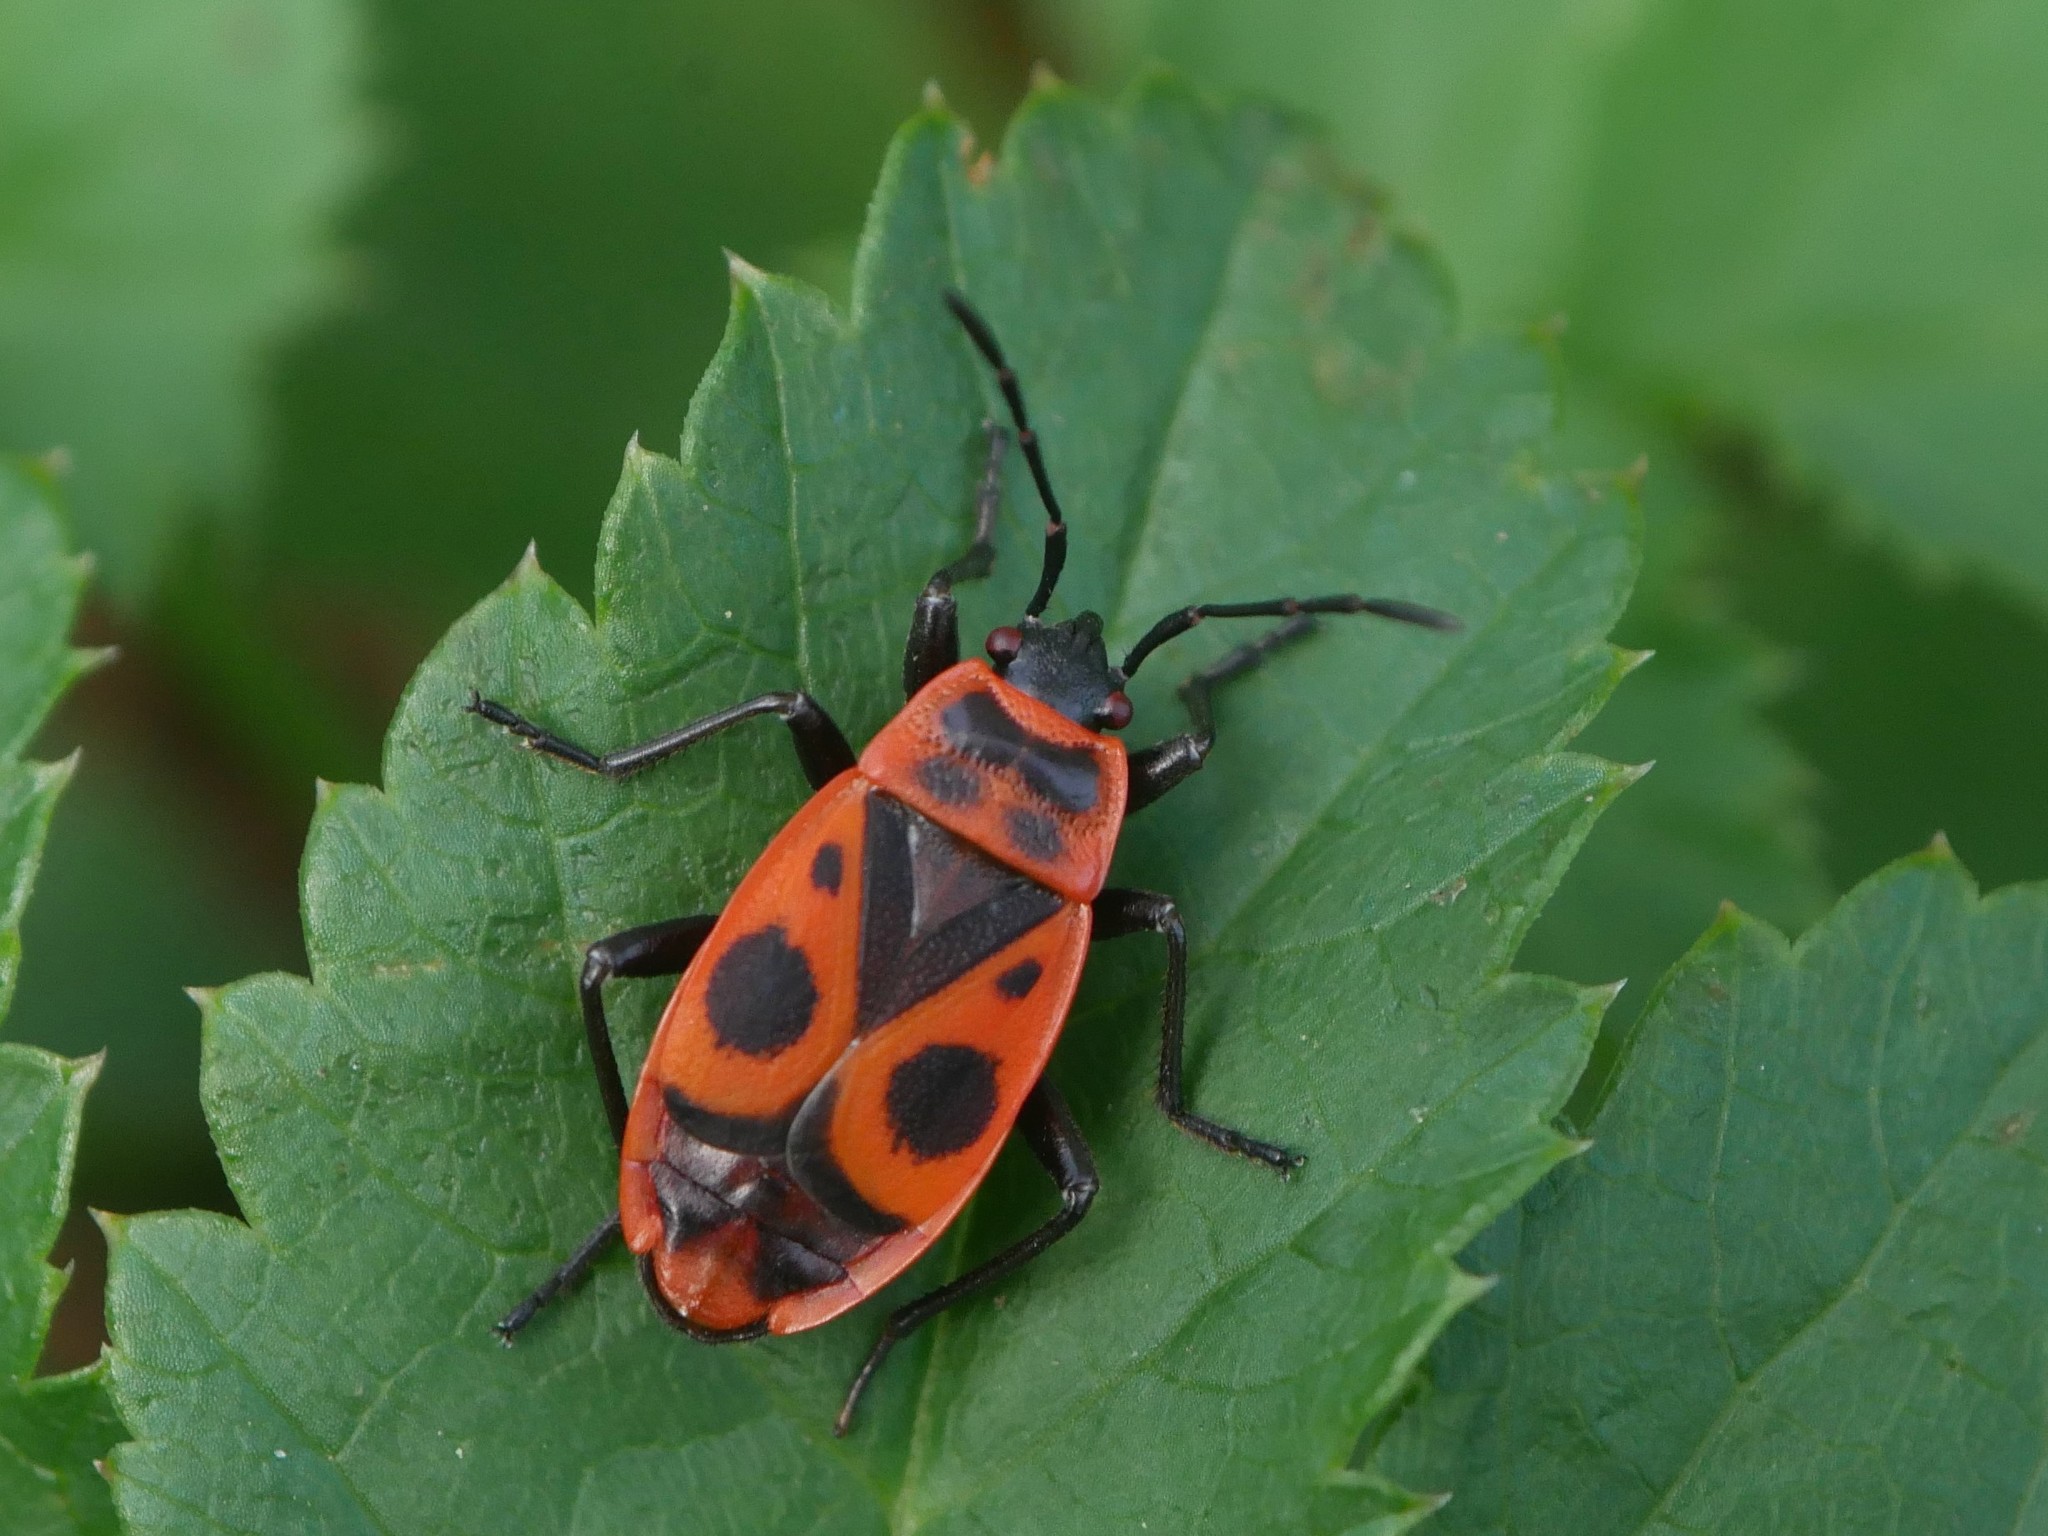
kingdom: Animalia
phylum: Arthropoda
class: Insecta
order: Hemiptera
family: Pyrrhocoridae
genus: Pyrrhocoris
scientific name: Pyrrhocoris apterus
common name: Firebug
